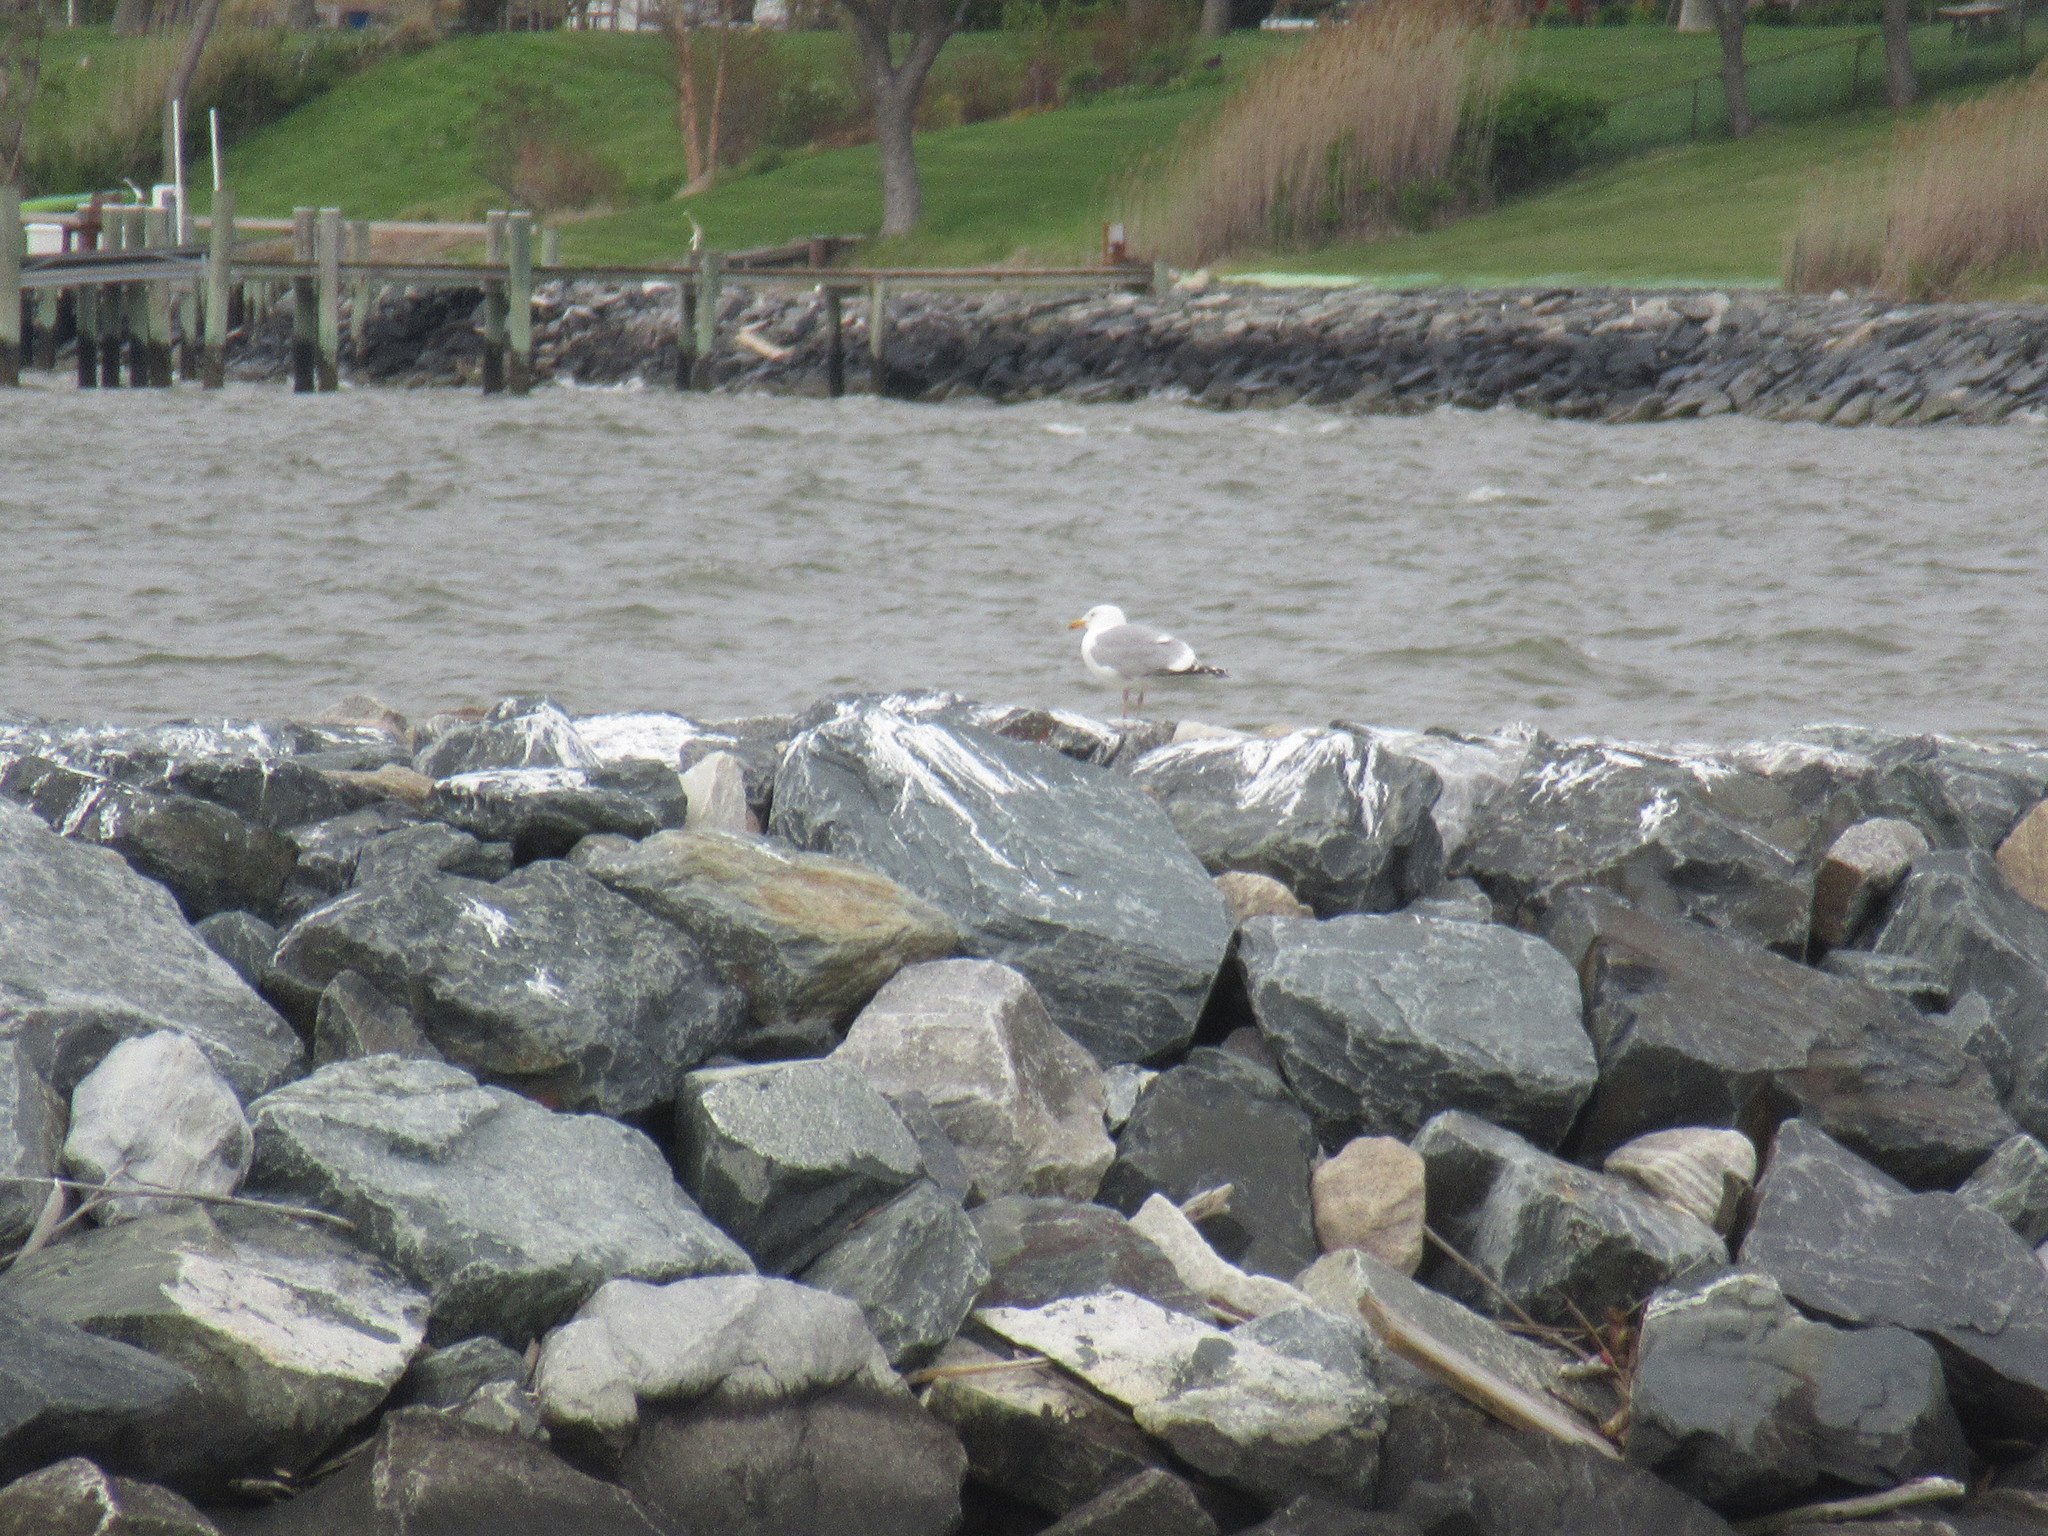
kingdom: Animalia
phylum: Chordata
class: Aves
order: Charadriiformes
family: Laridae
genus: Larus
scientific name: Larus argentatus
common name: Herring gull
